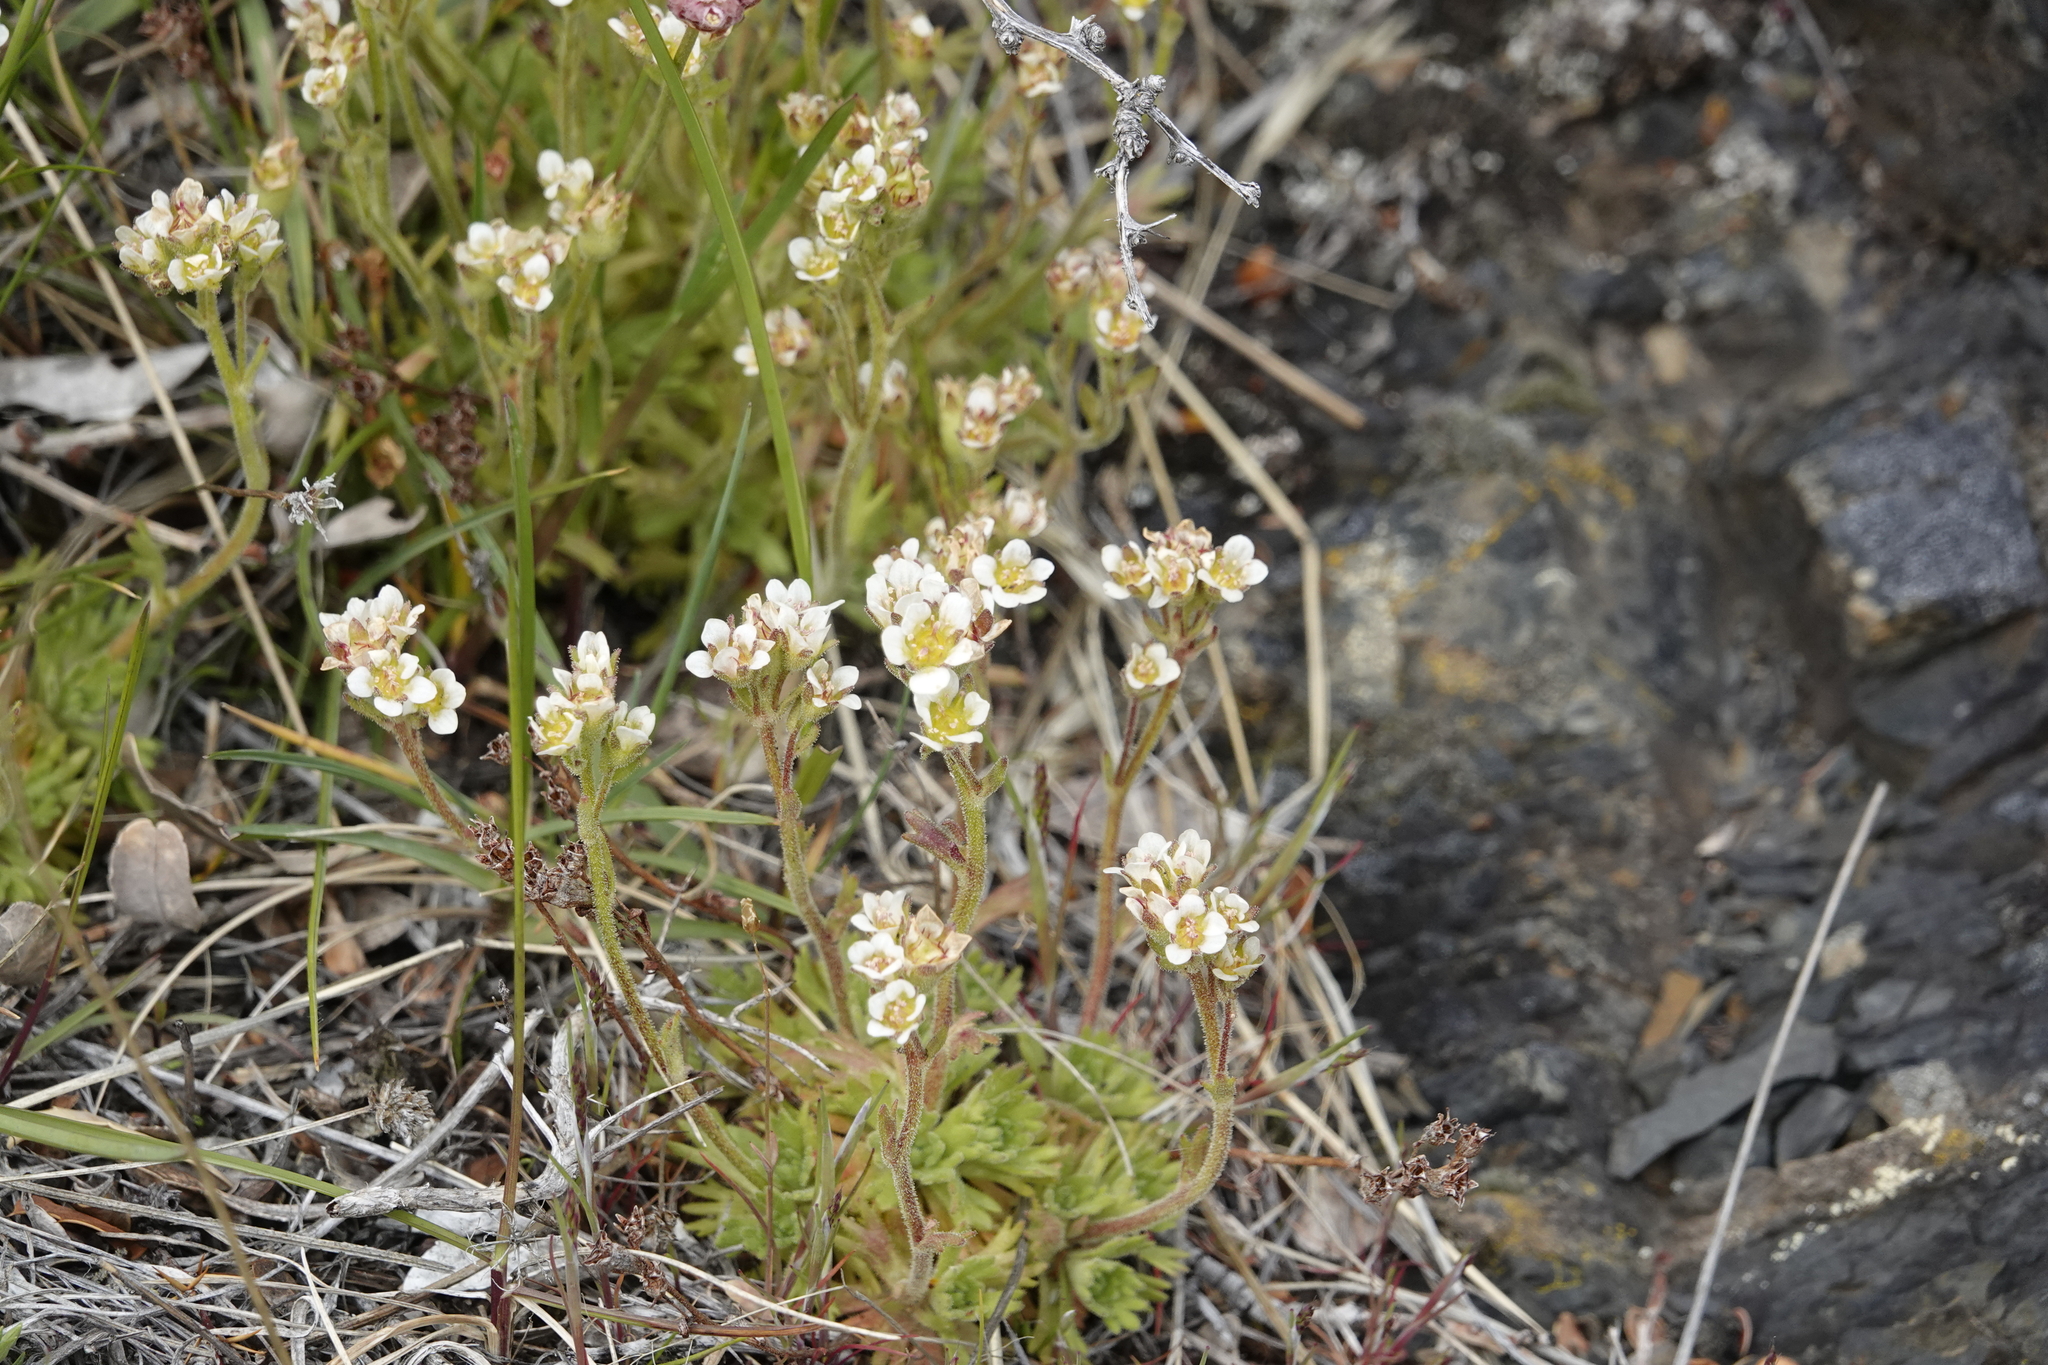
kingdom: Plantae
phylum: Tracheophyta
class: Magnoliopsida
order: Saxifragales
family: Saxifragaceae
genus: Saxifraga
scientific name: Saxifraga magellanica
